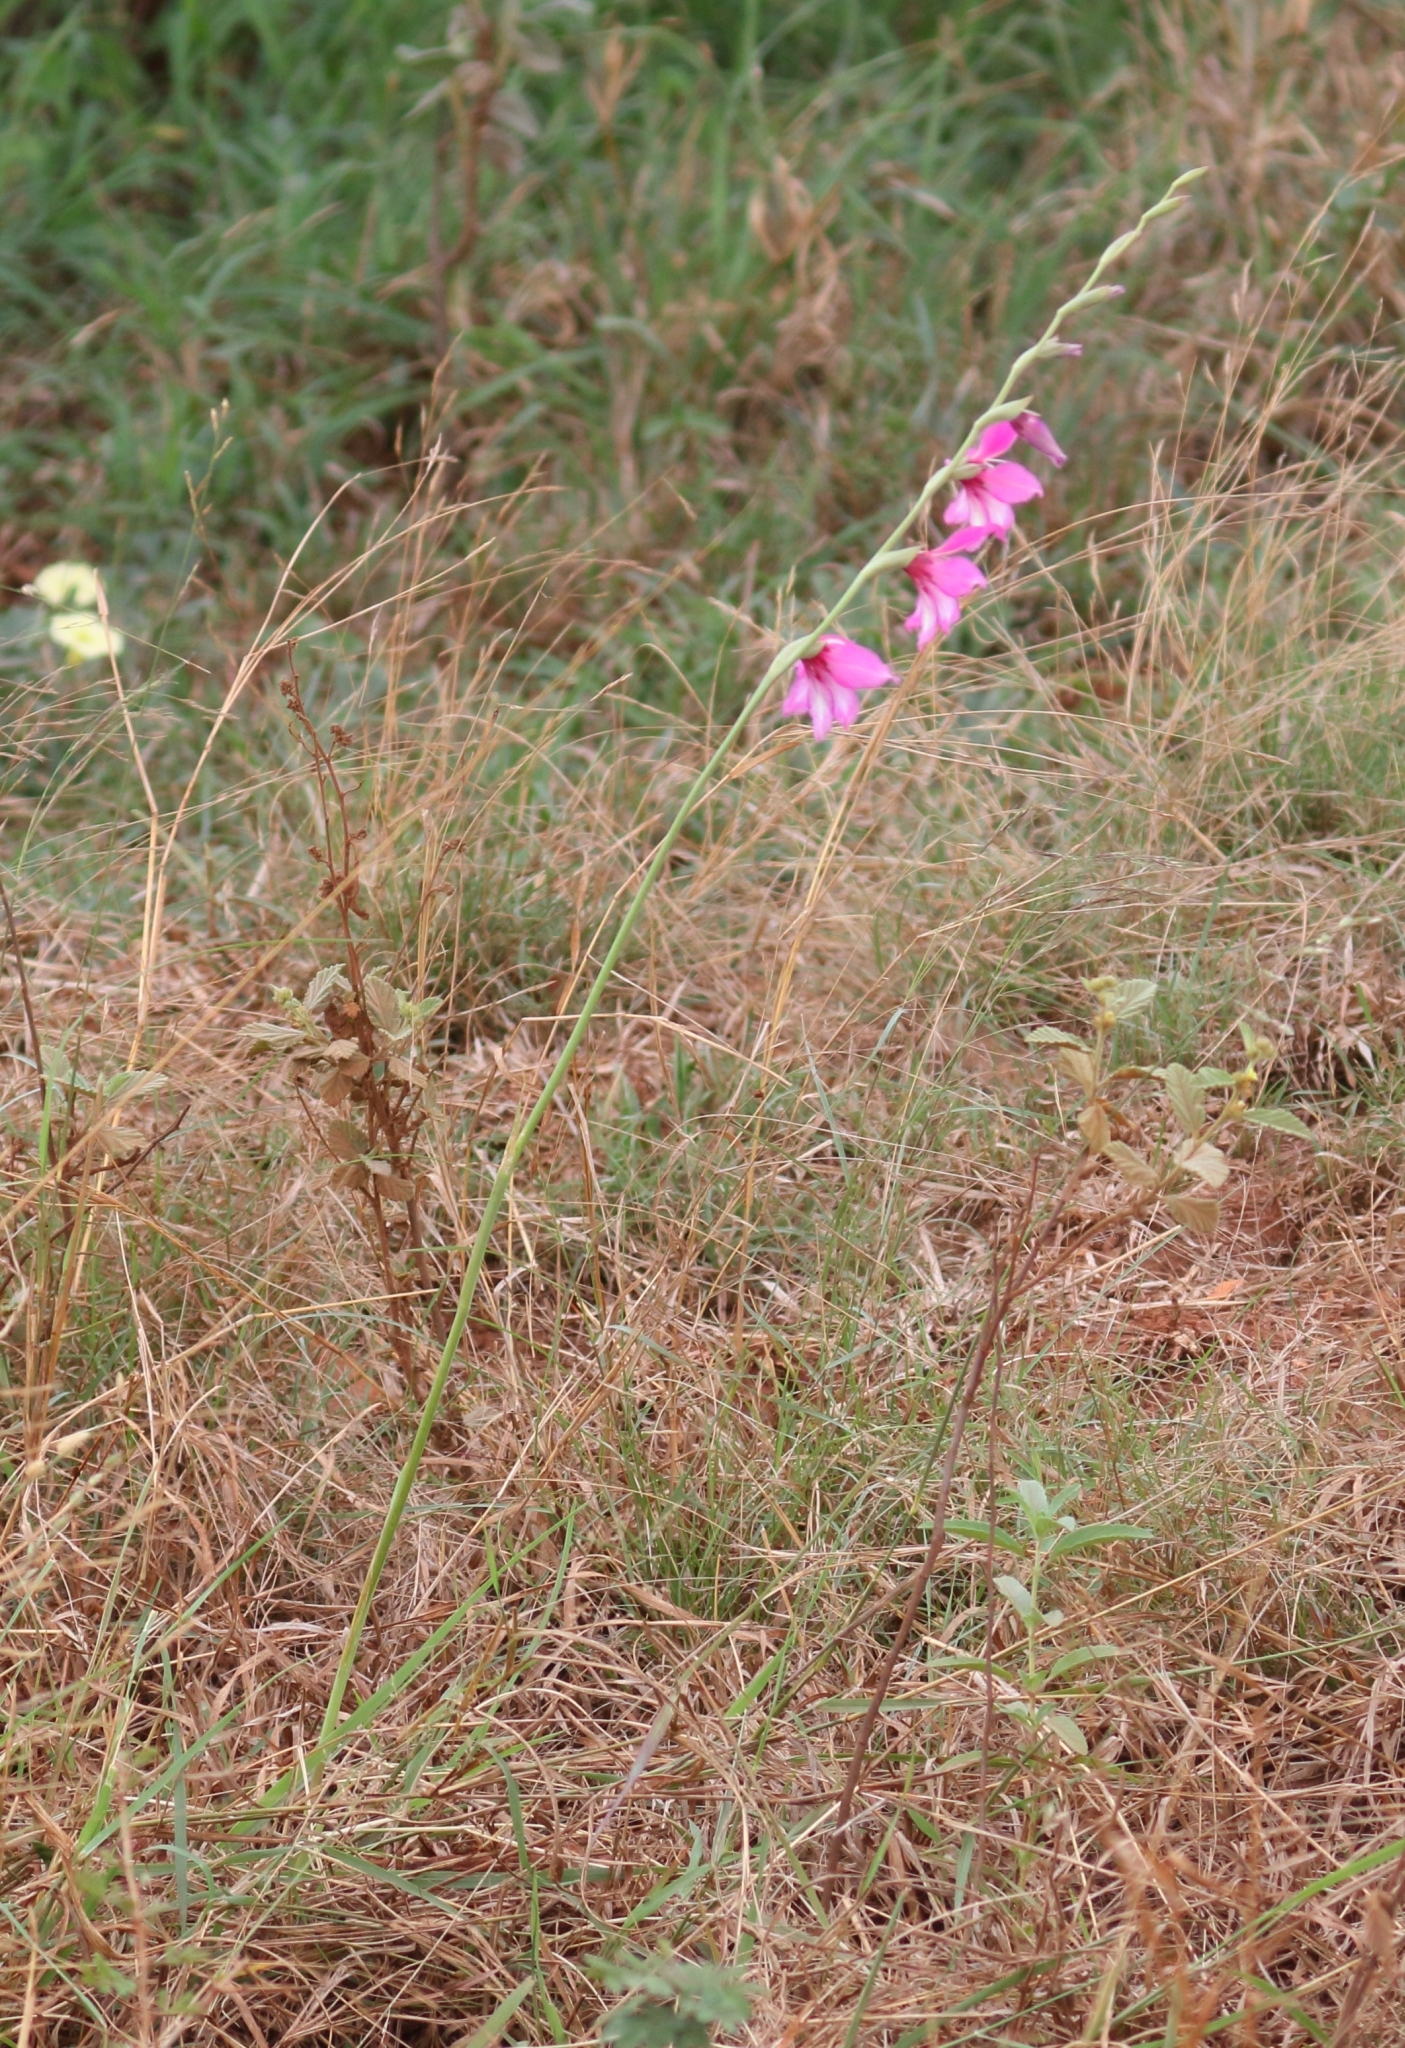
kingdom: Plantae
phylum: Tracheophyta
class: Liliopsida
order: Asparagales
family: Iridaceae
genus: Gladiolus
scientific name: Gladiolus brachyphyllus
